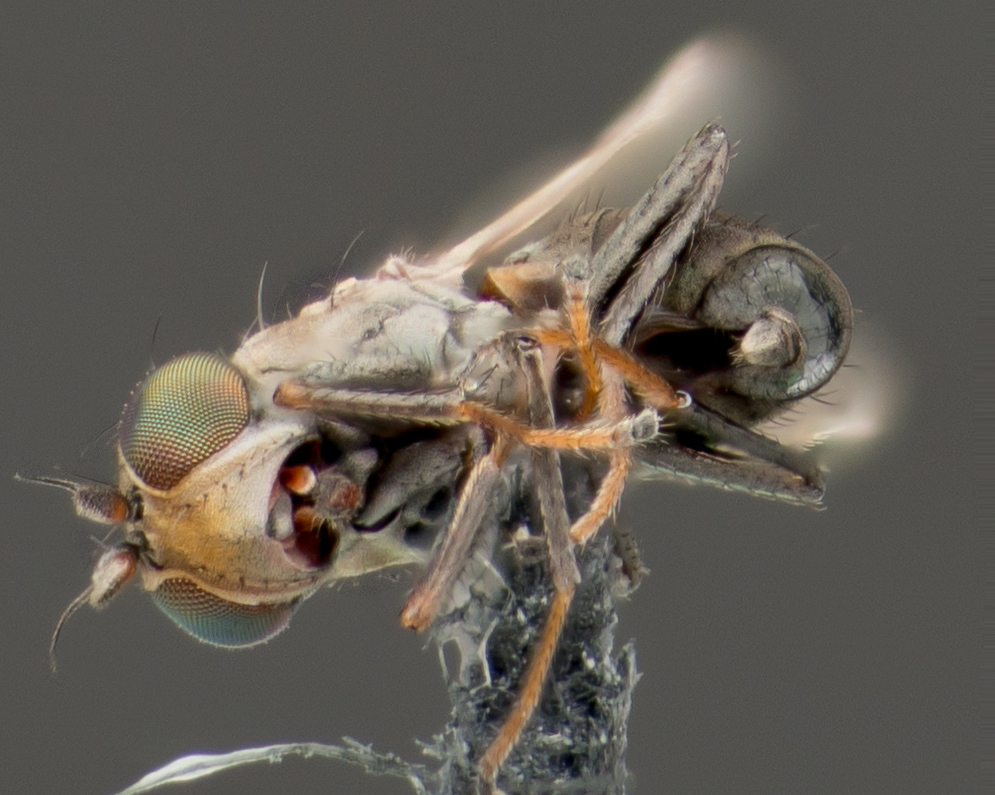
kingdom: Animalia
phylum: Arthropoda
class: Insecta
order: Diptera
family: Ephydridae
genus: Philygria
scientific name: Philygria debilis
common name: Brine fly
